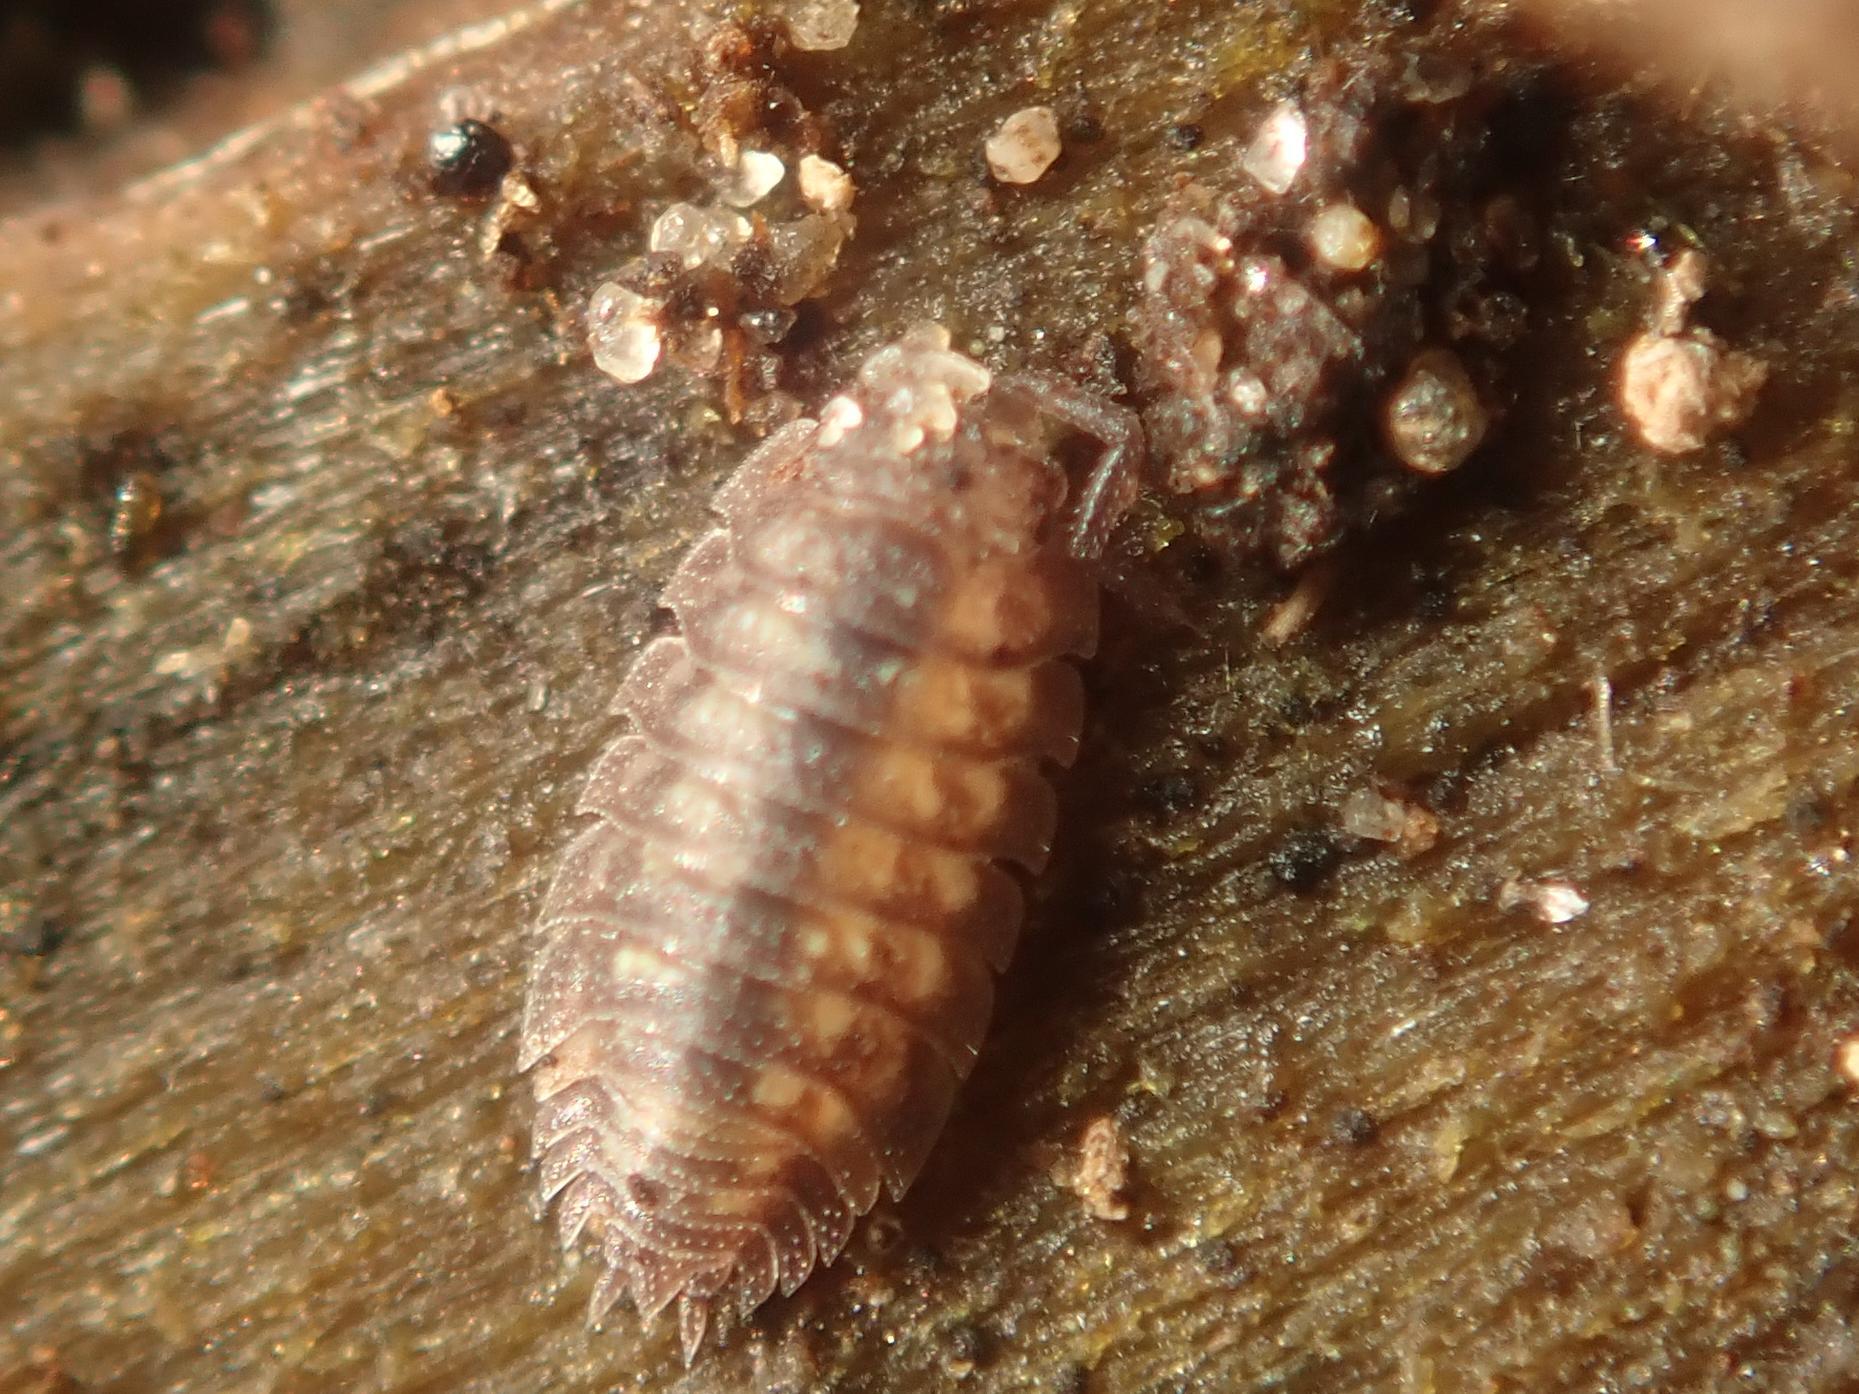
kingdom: Animalia
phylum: Arthropoda
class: Malacostraca
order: Isopoda
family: Oniscidae
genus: Oniscus
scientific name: Oniscus asellus
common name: Common shiny woodlouse
